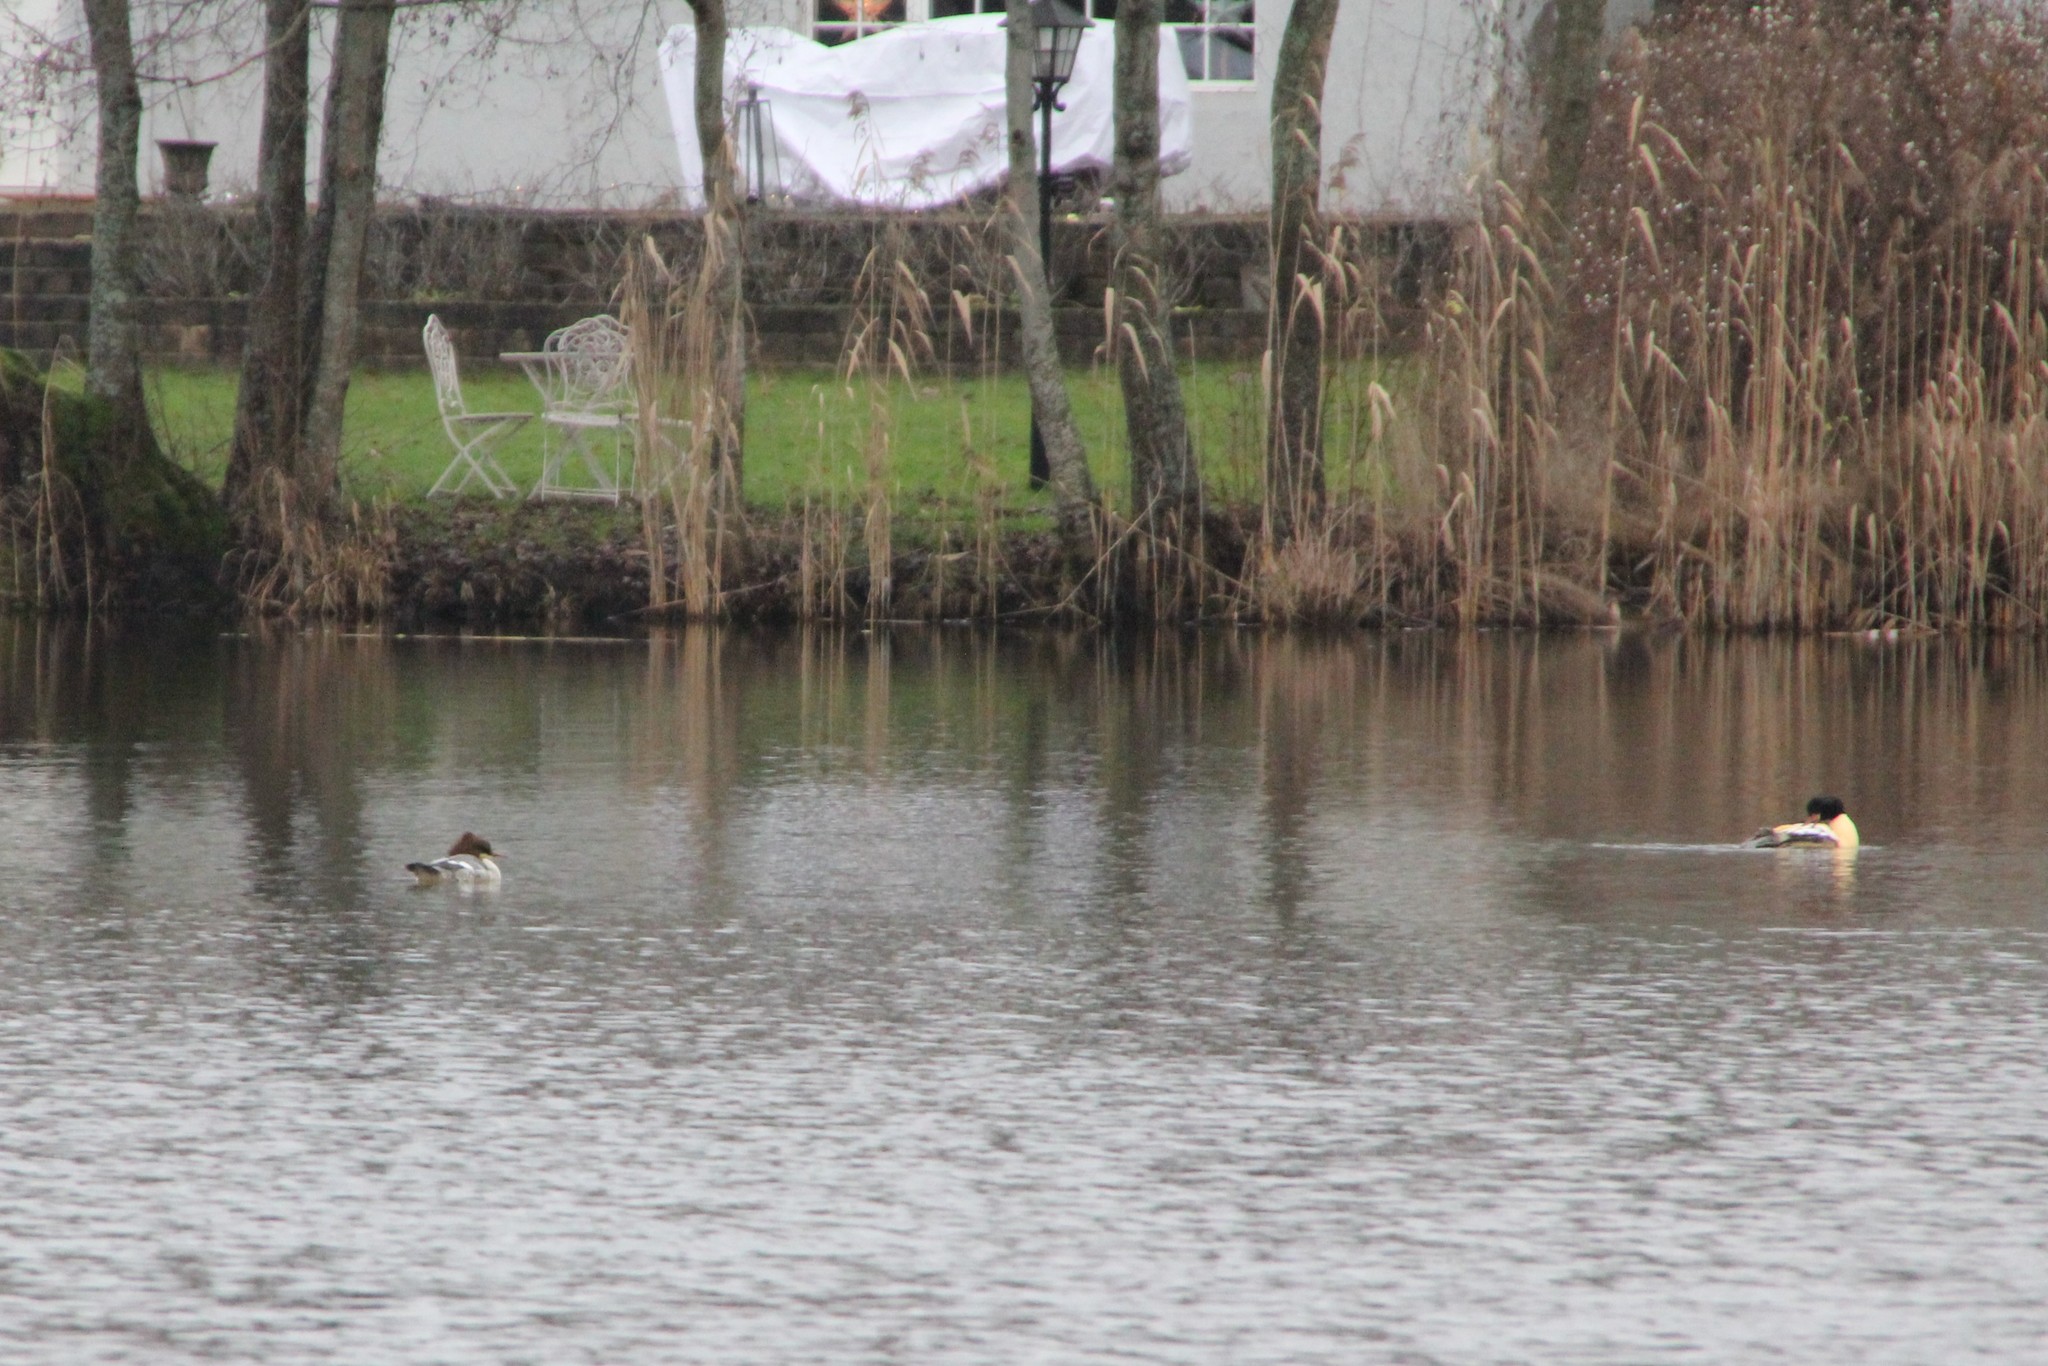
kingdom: Animalia
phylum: Chordata
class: Aves
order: Anseriformes
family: Anatidae
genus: Mergus
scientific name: Mergus merganser
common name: Common merganser
